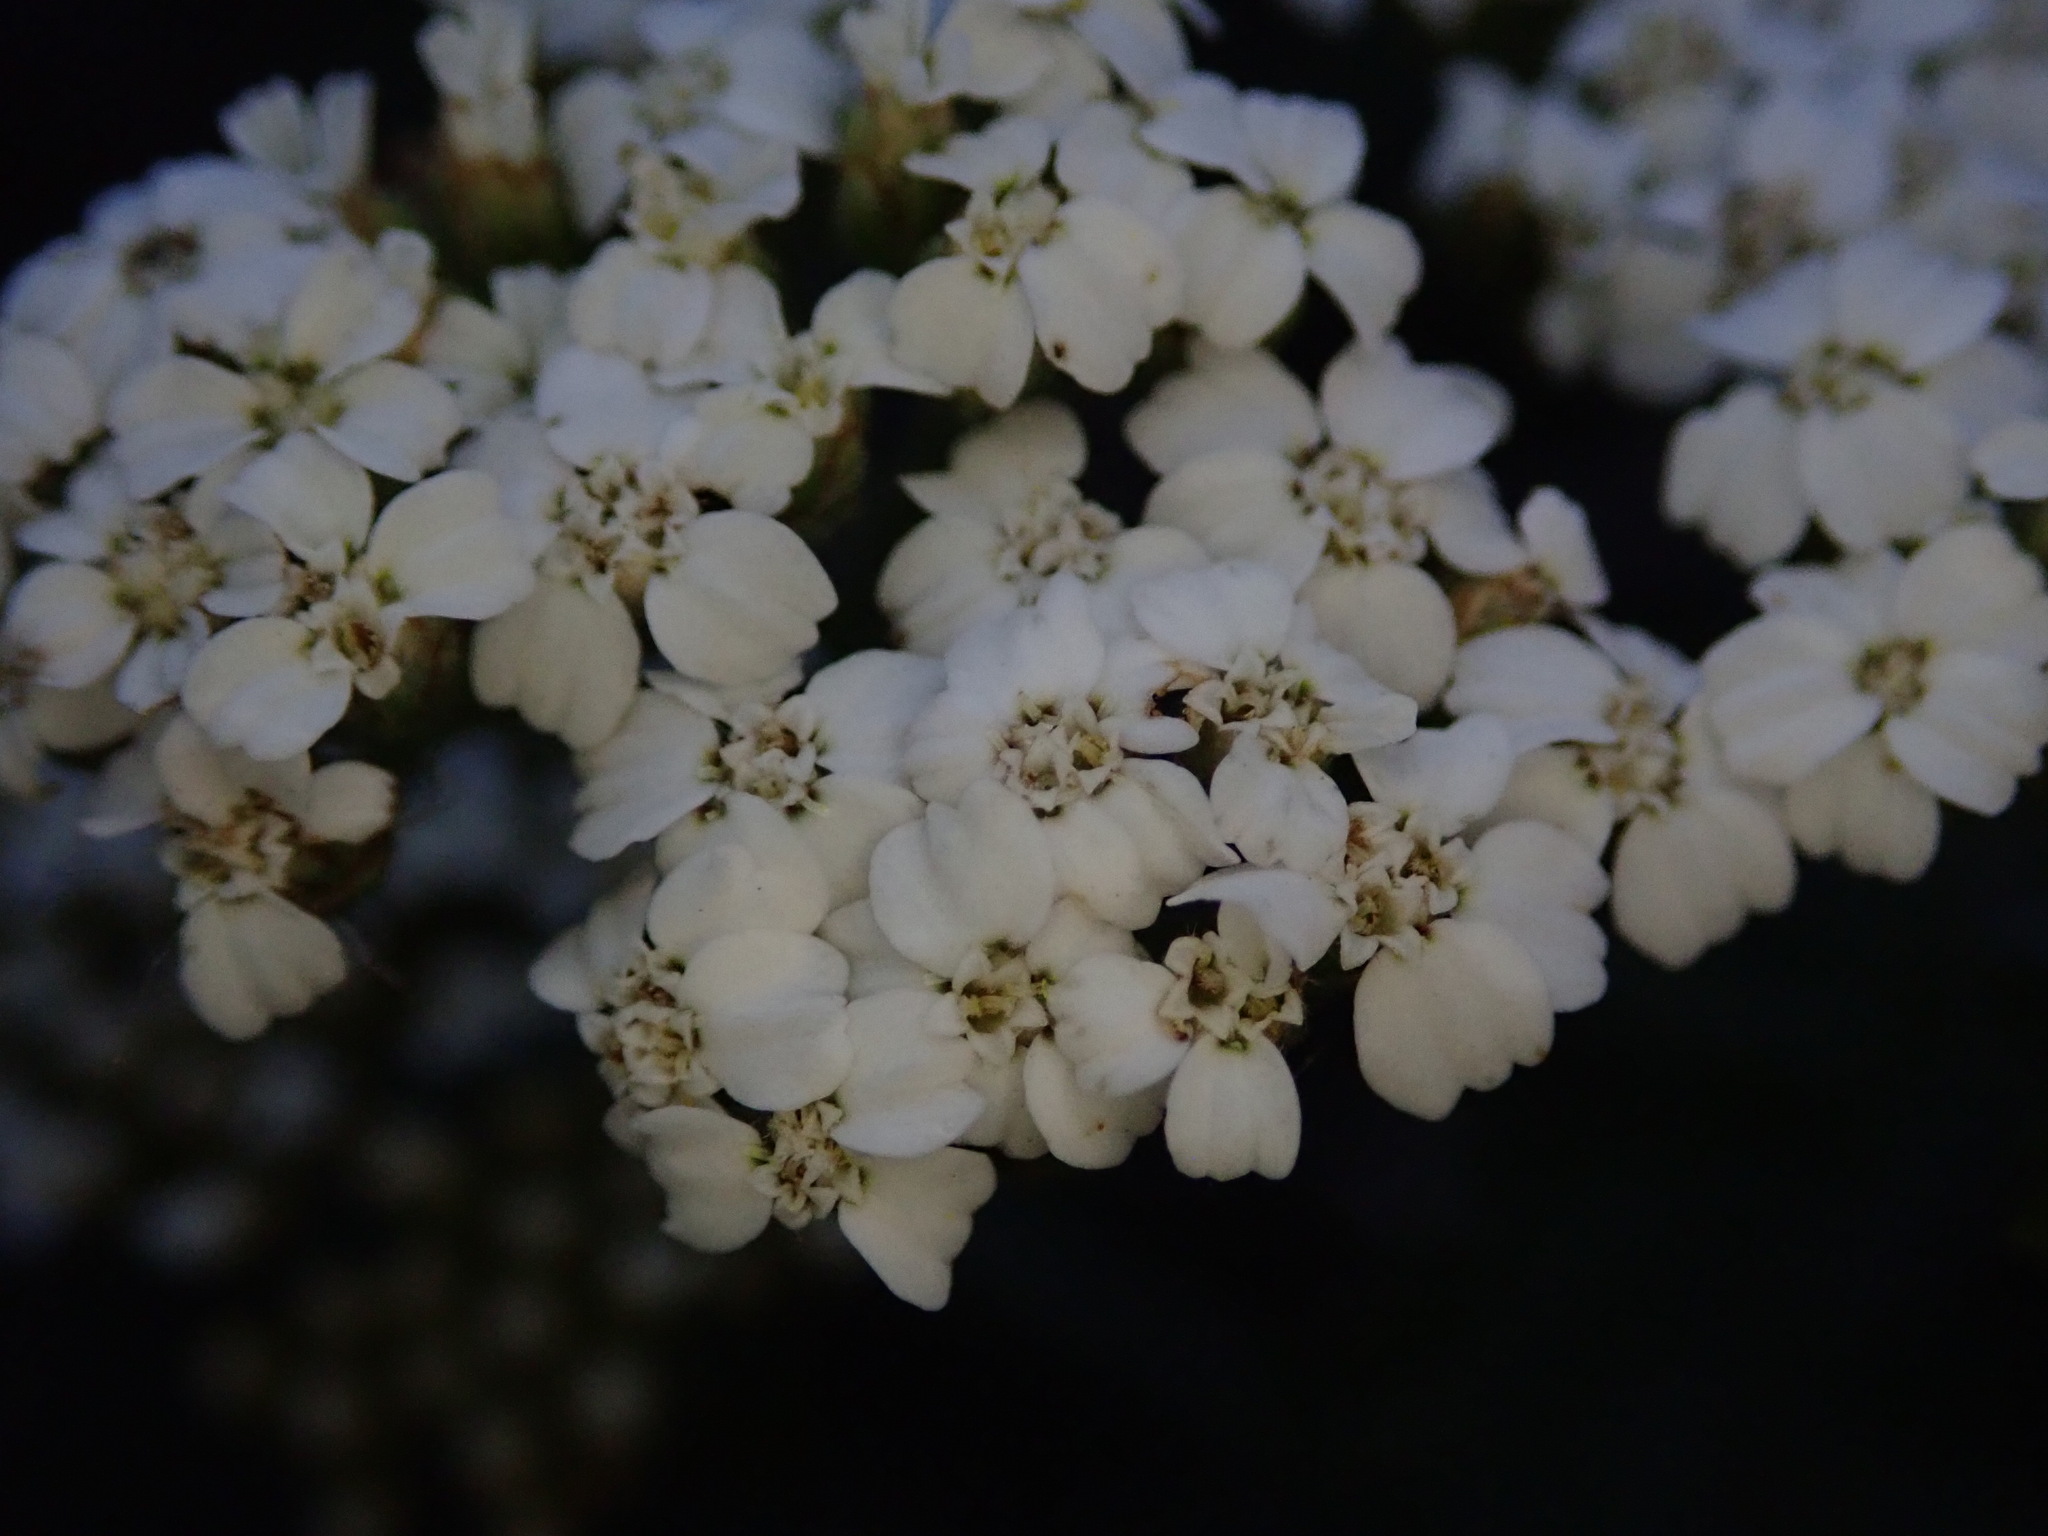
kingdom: Plantae
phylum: Tracheophyta
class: Magnoliopsida
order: Asterales
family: Asteraceae
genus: Achillea
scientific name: Achillea millefolium
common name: Yarrow
